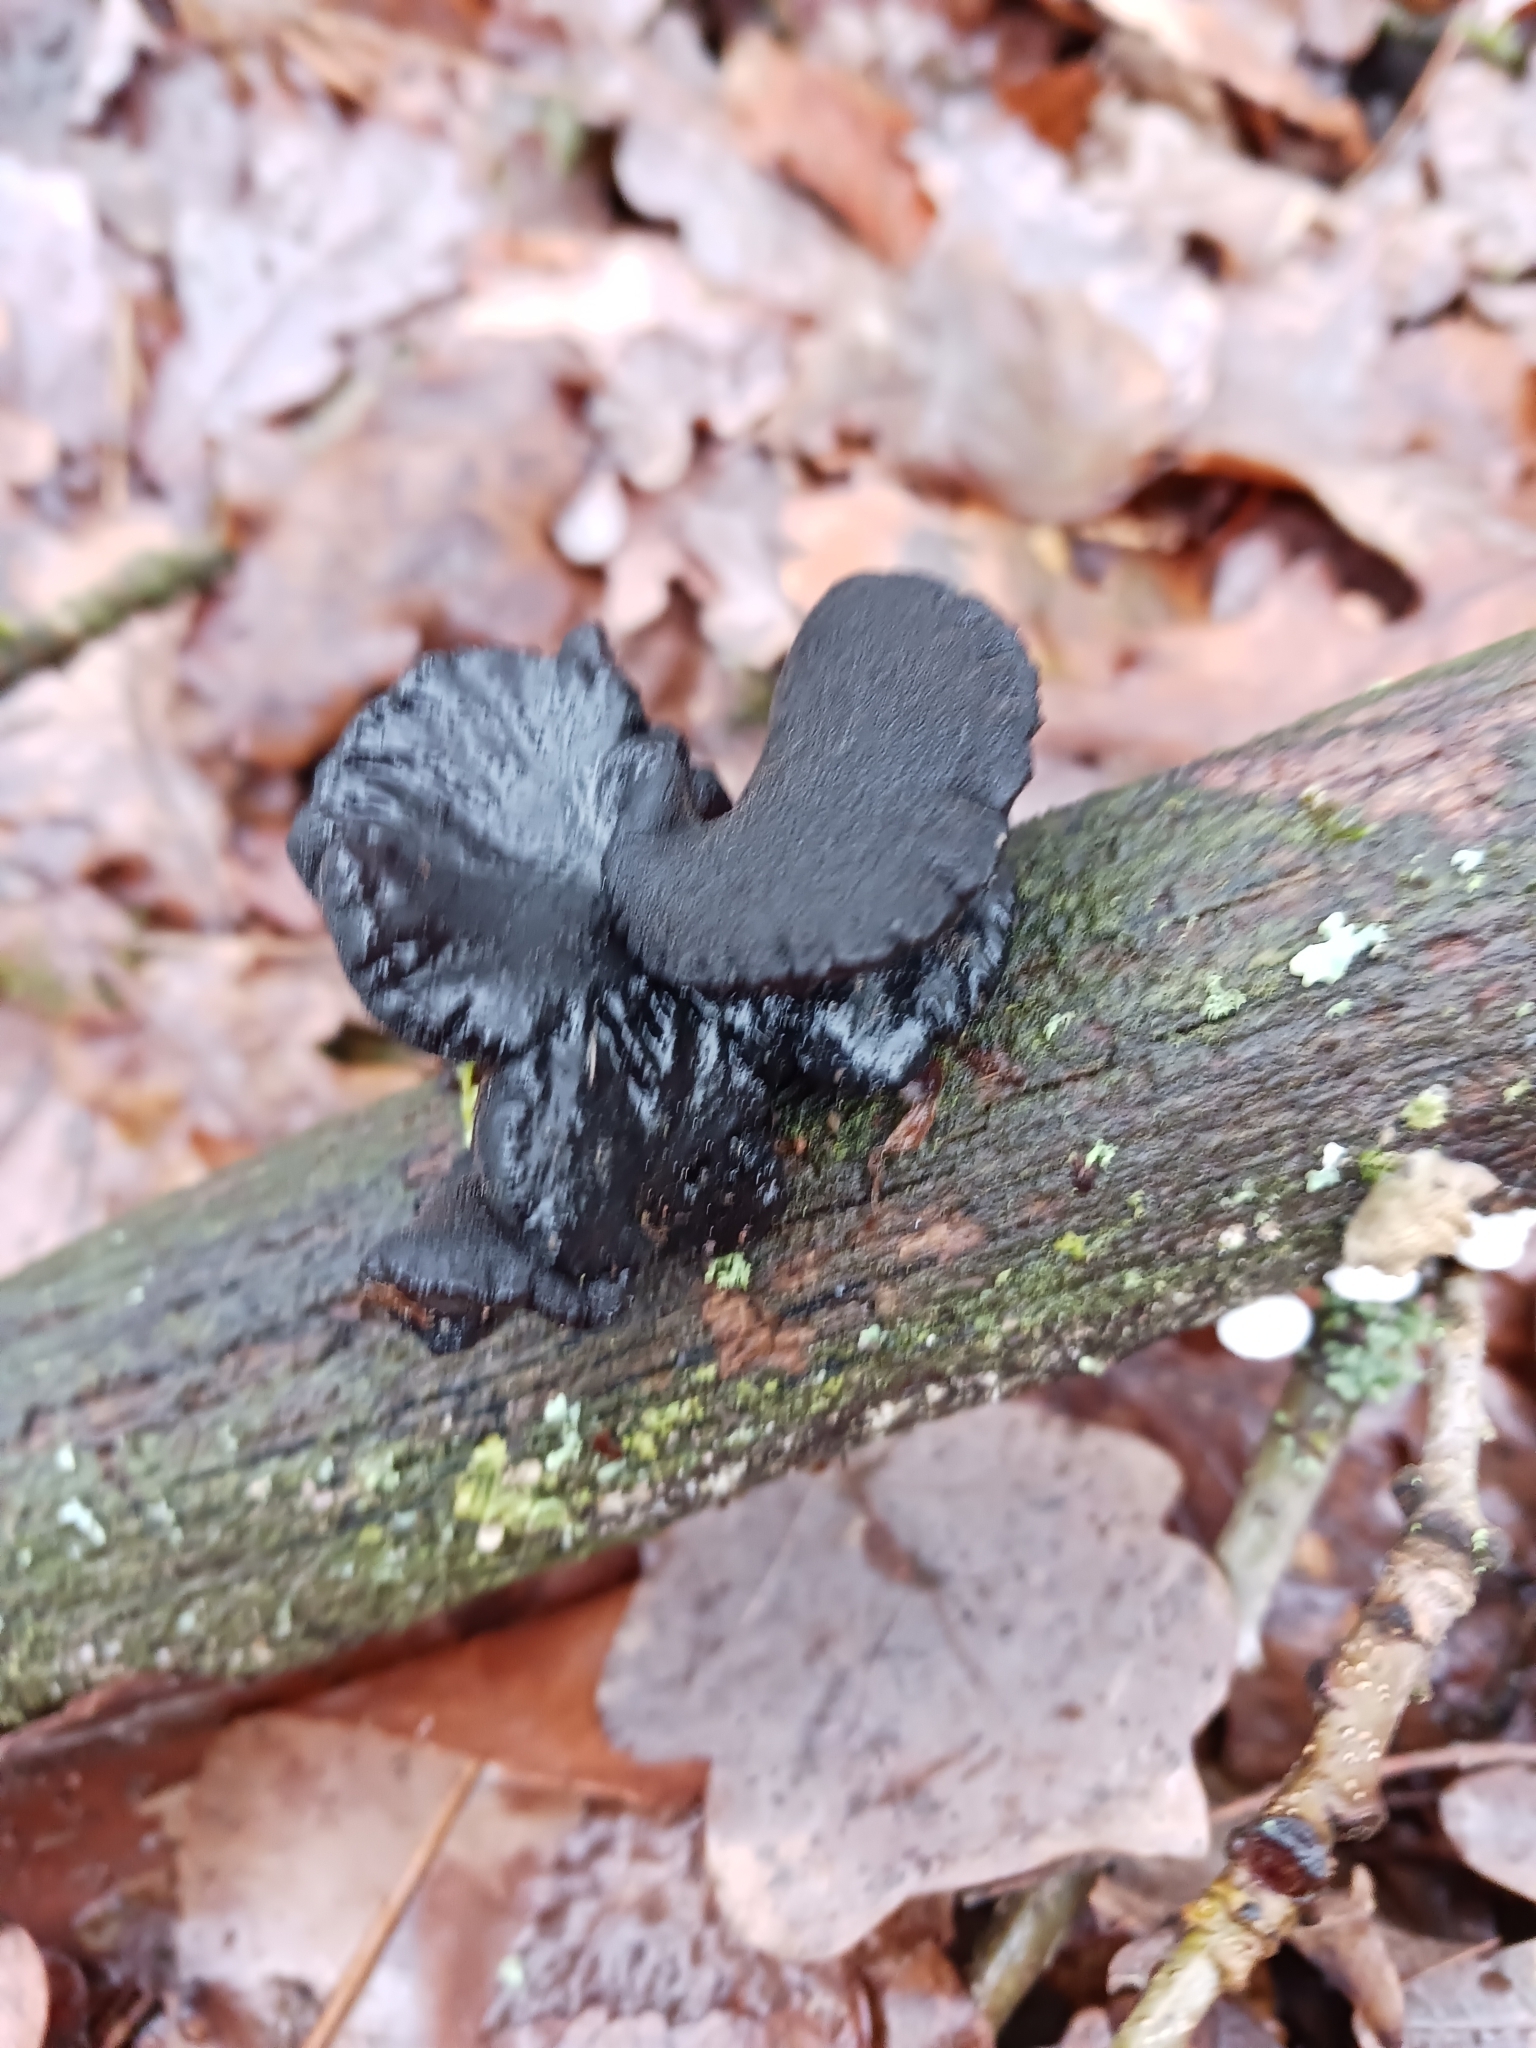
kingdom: Fungi
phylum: Basidiomycota
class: Agaricomycetes
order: Auriculariales
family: Auriculariaceae
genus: Exidia
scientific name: Exidia glandulosa
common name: Witches' butter
